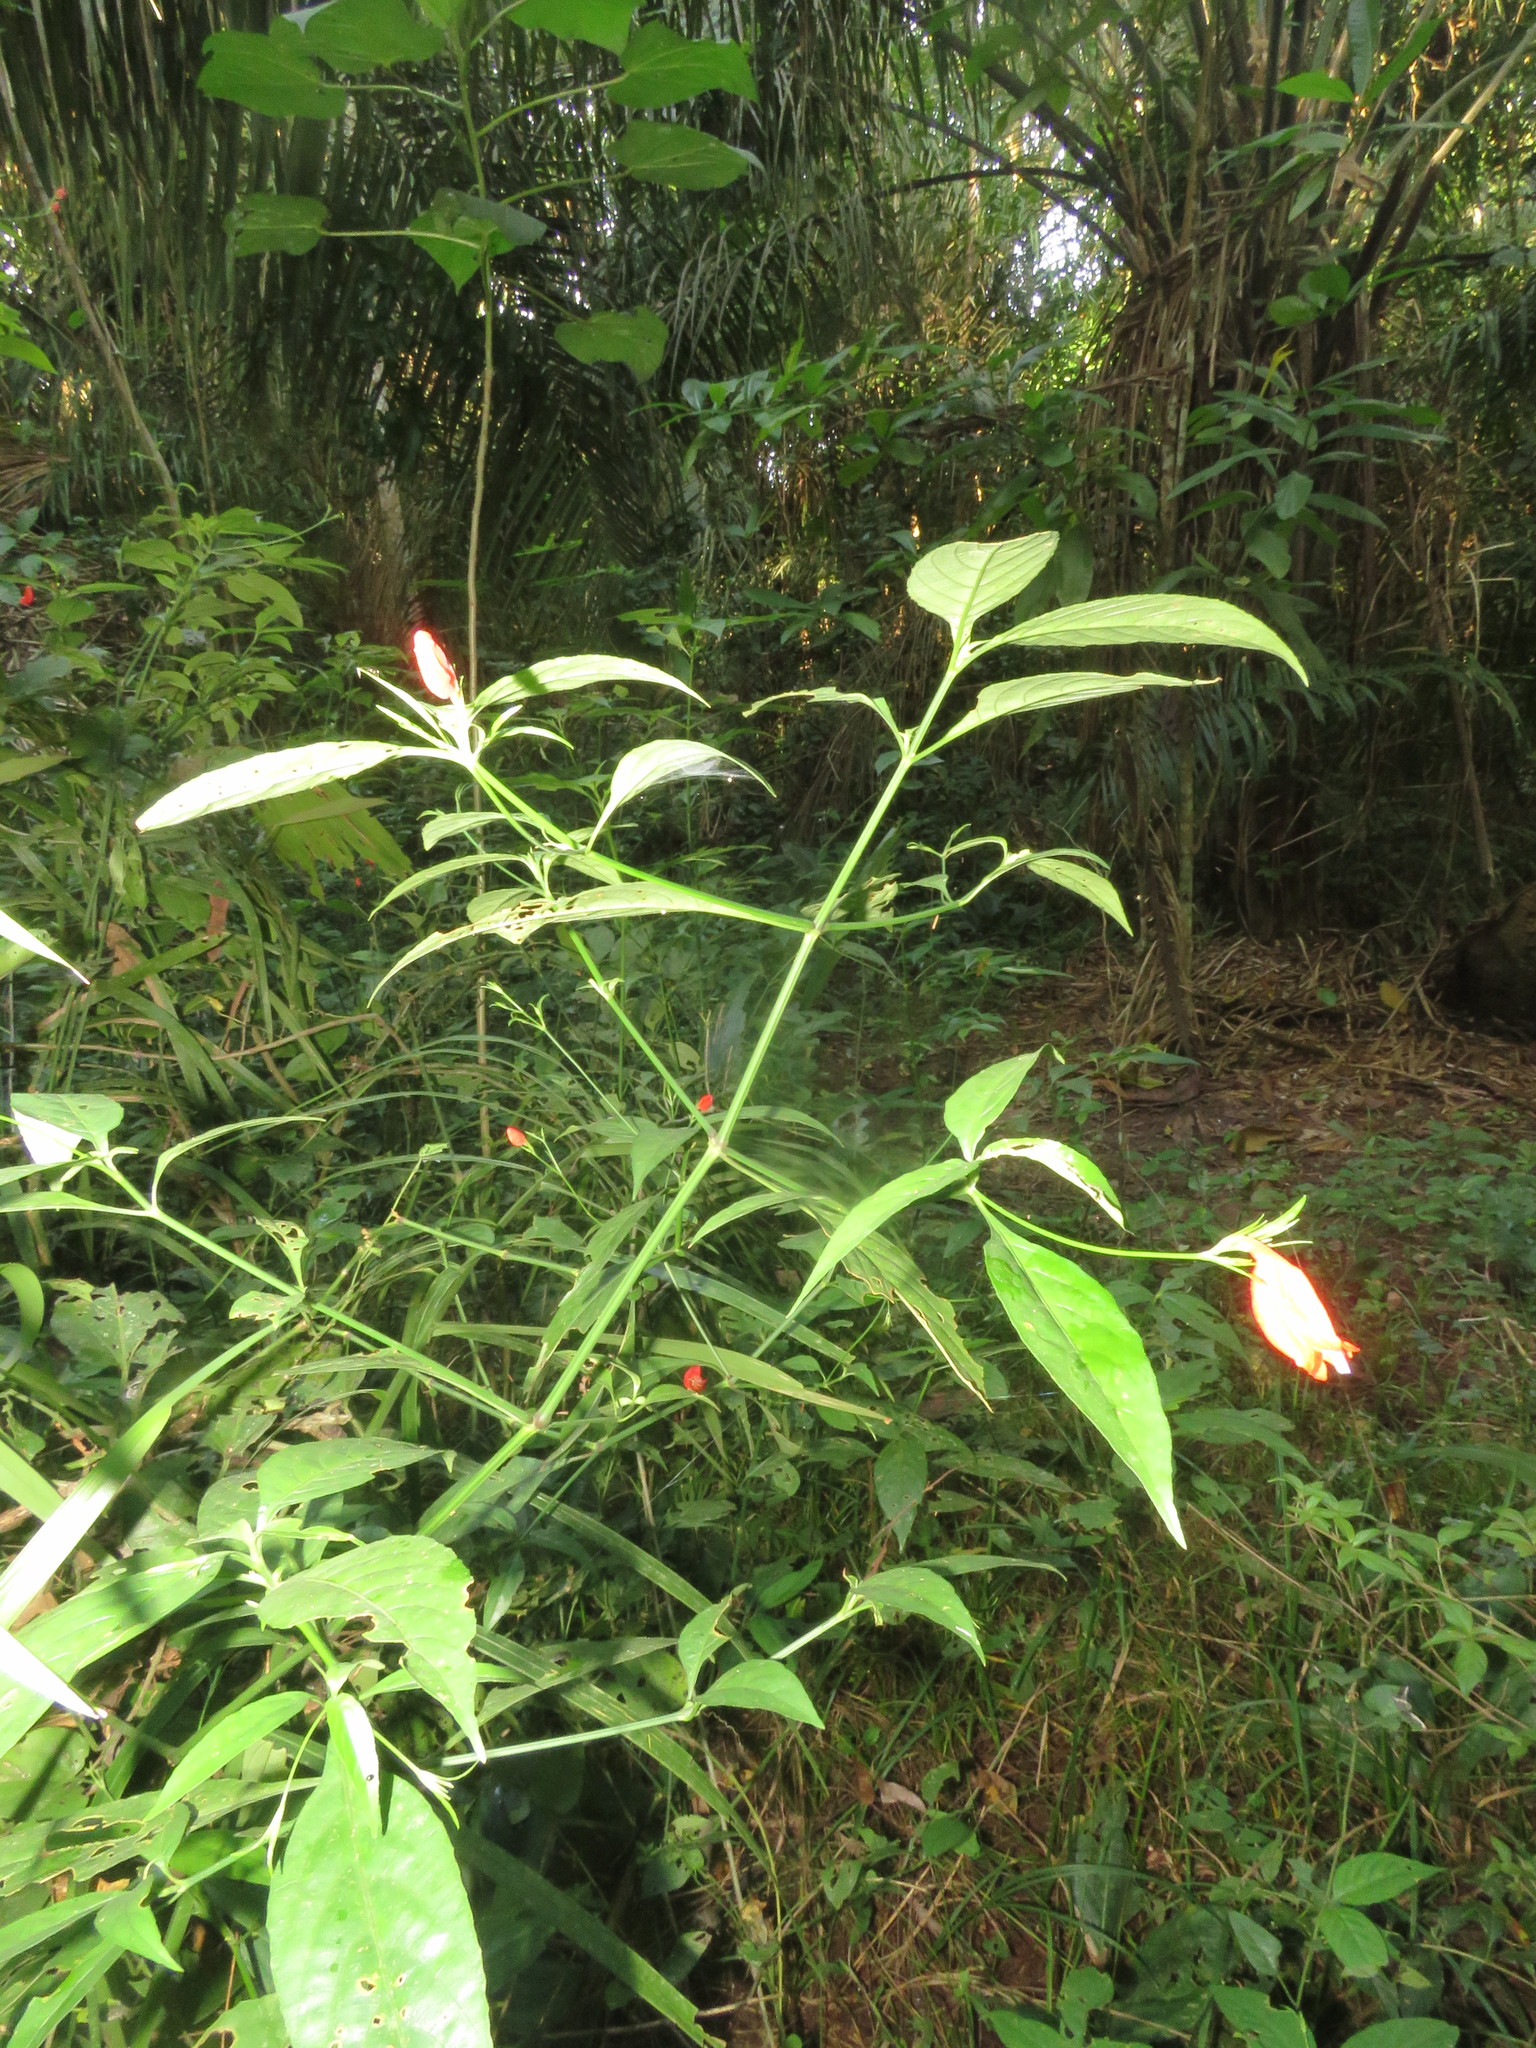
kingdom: Plantae
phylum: Tracheophyta
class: Magnoliopsida
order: Lamiales
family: Acanthaceae
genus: Ruellia
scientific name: Ruellia brevifolia
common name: Tropical wild petunia
